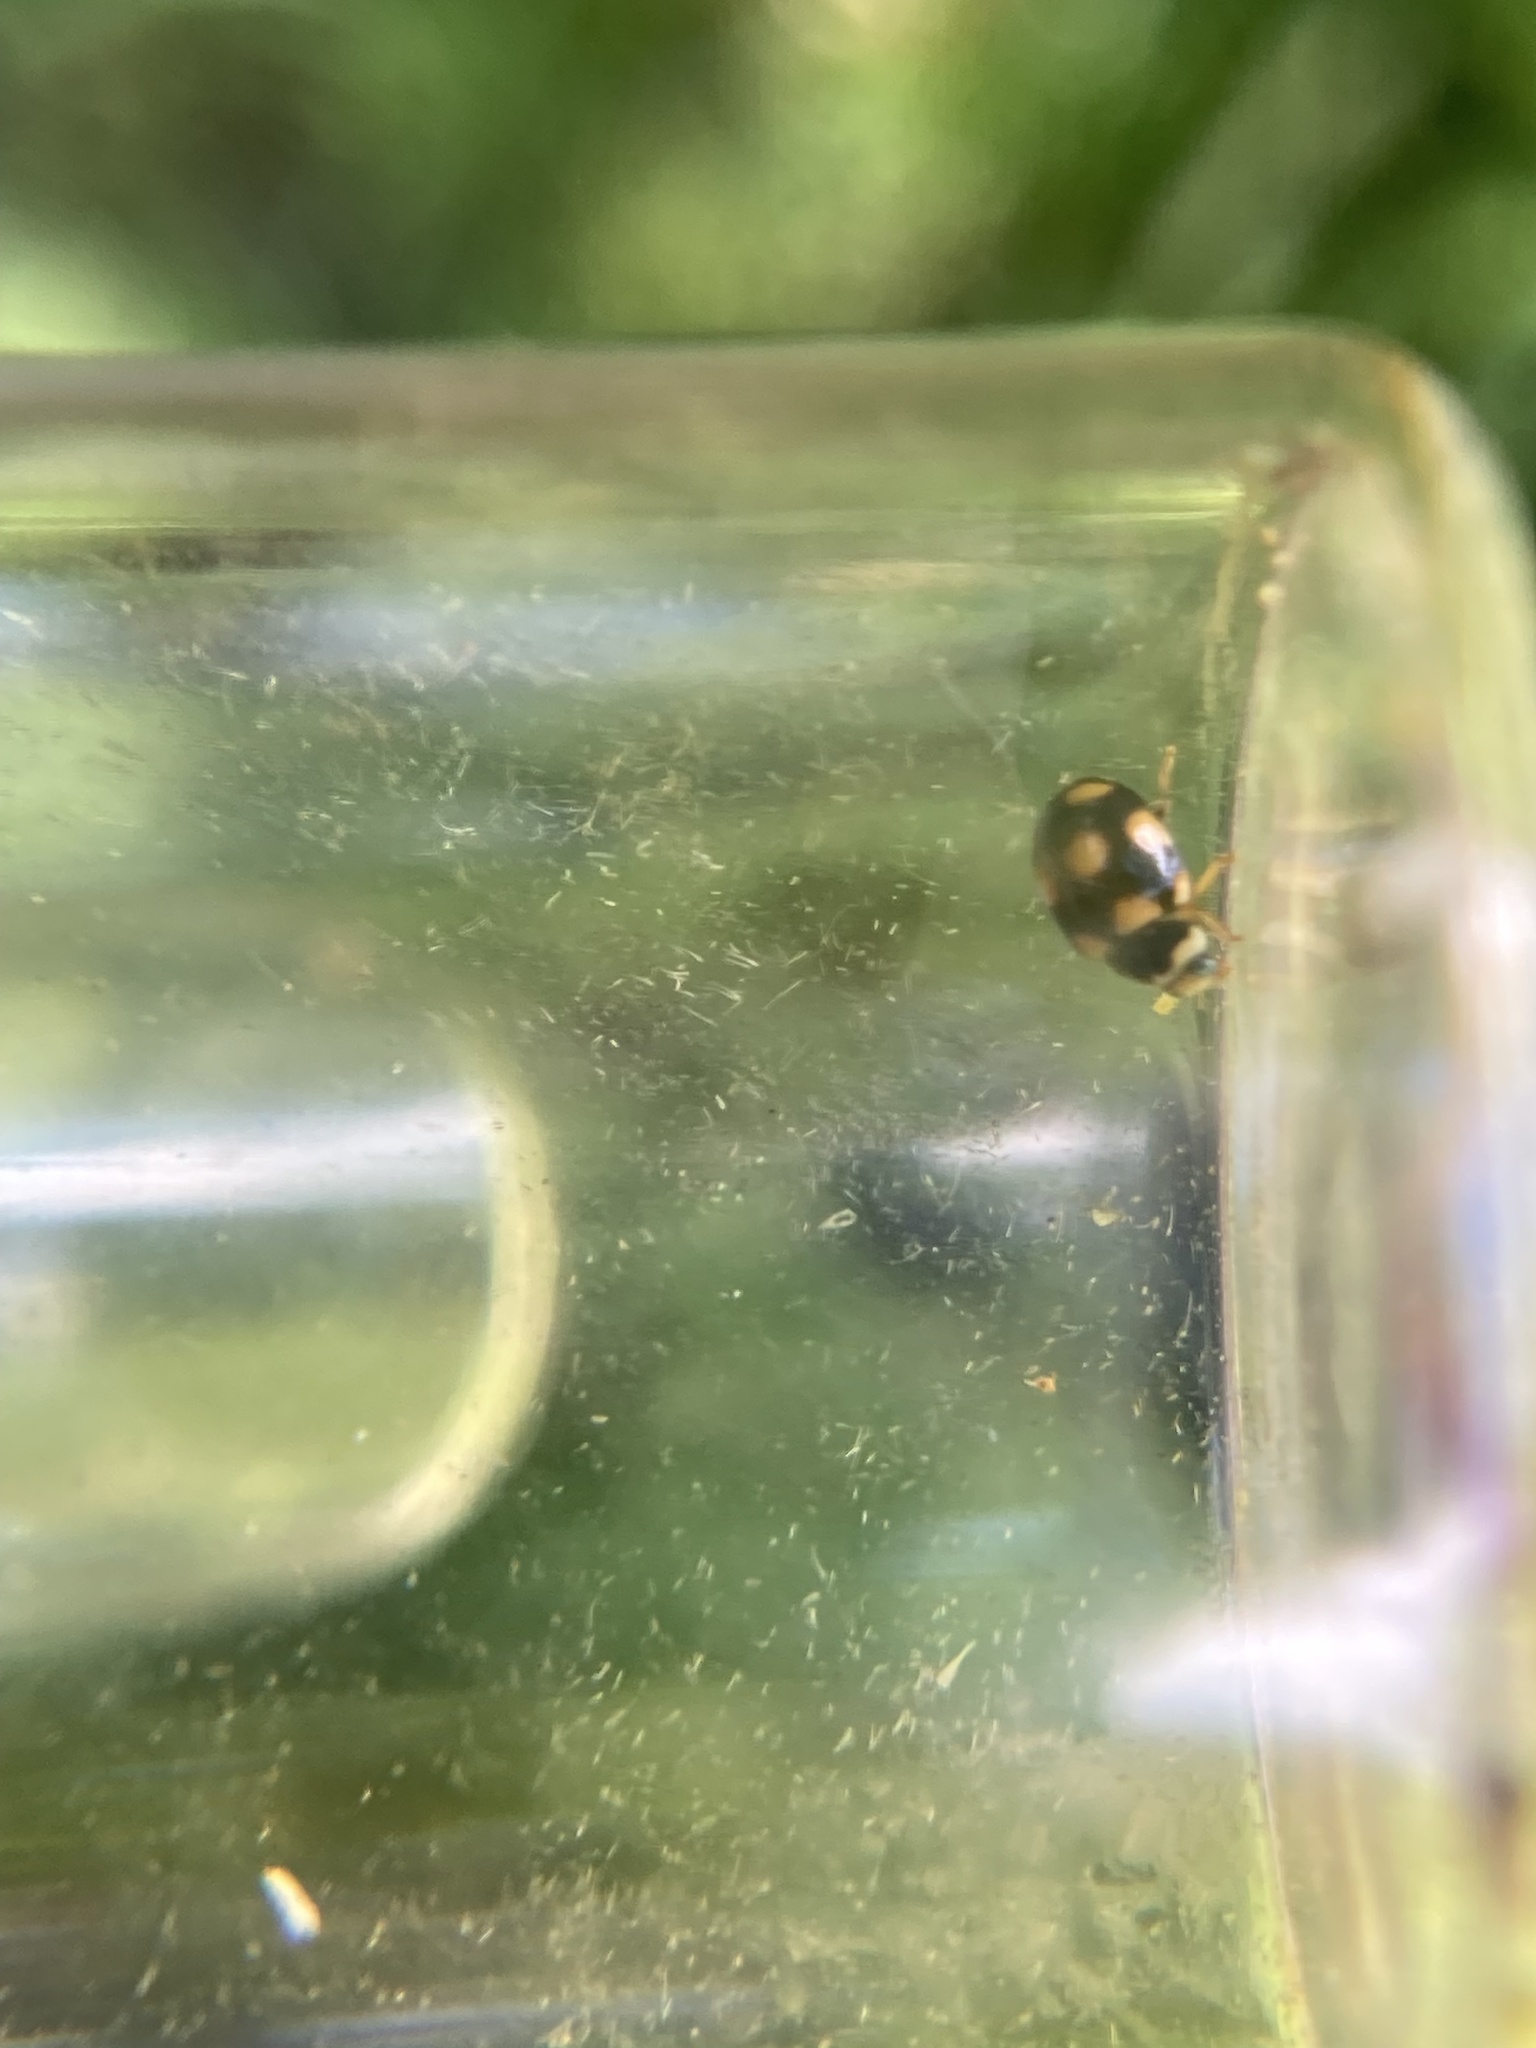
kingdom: Animalia
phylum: Arthropoda
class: Insecta
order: Coleoptera
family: Coccinellidae
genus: Brachiacantha
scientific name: Brachiacantha ursina
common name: Ursine spurleg lady beetle
